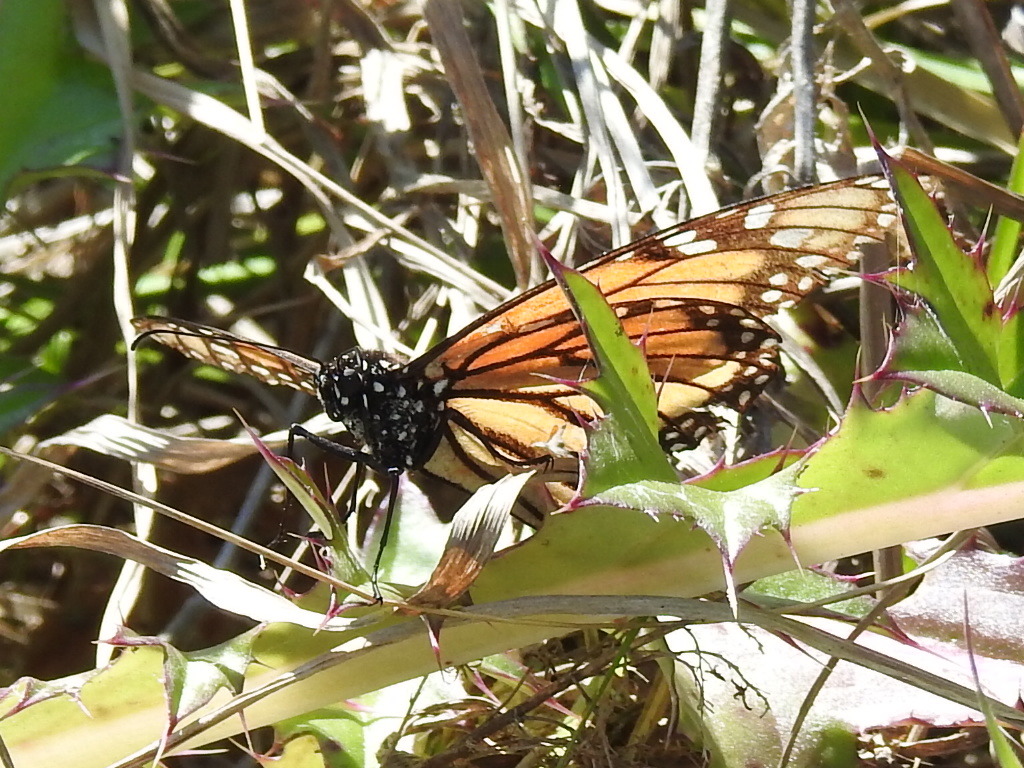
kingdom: Animalia
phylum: Arthropoda
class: Insecta
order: Lepidoptera
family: Nymphalidae
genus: Danaus
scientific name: Danaus plexippus
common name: Monarch
